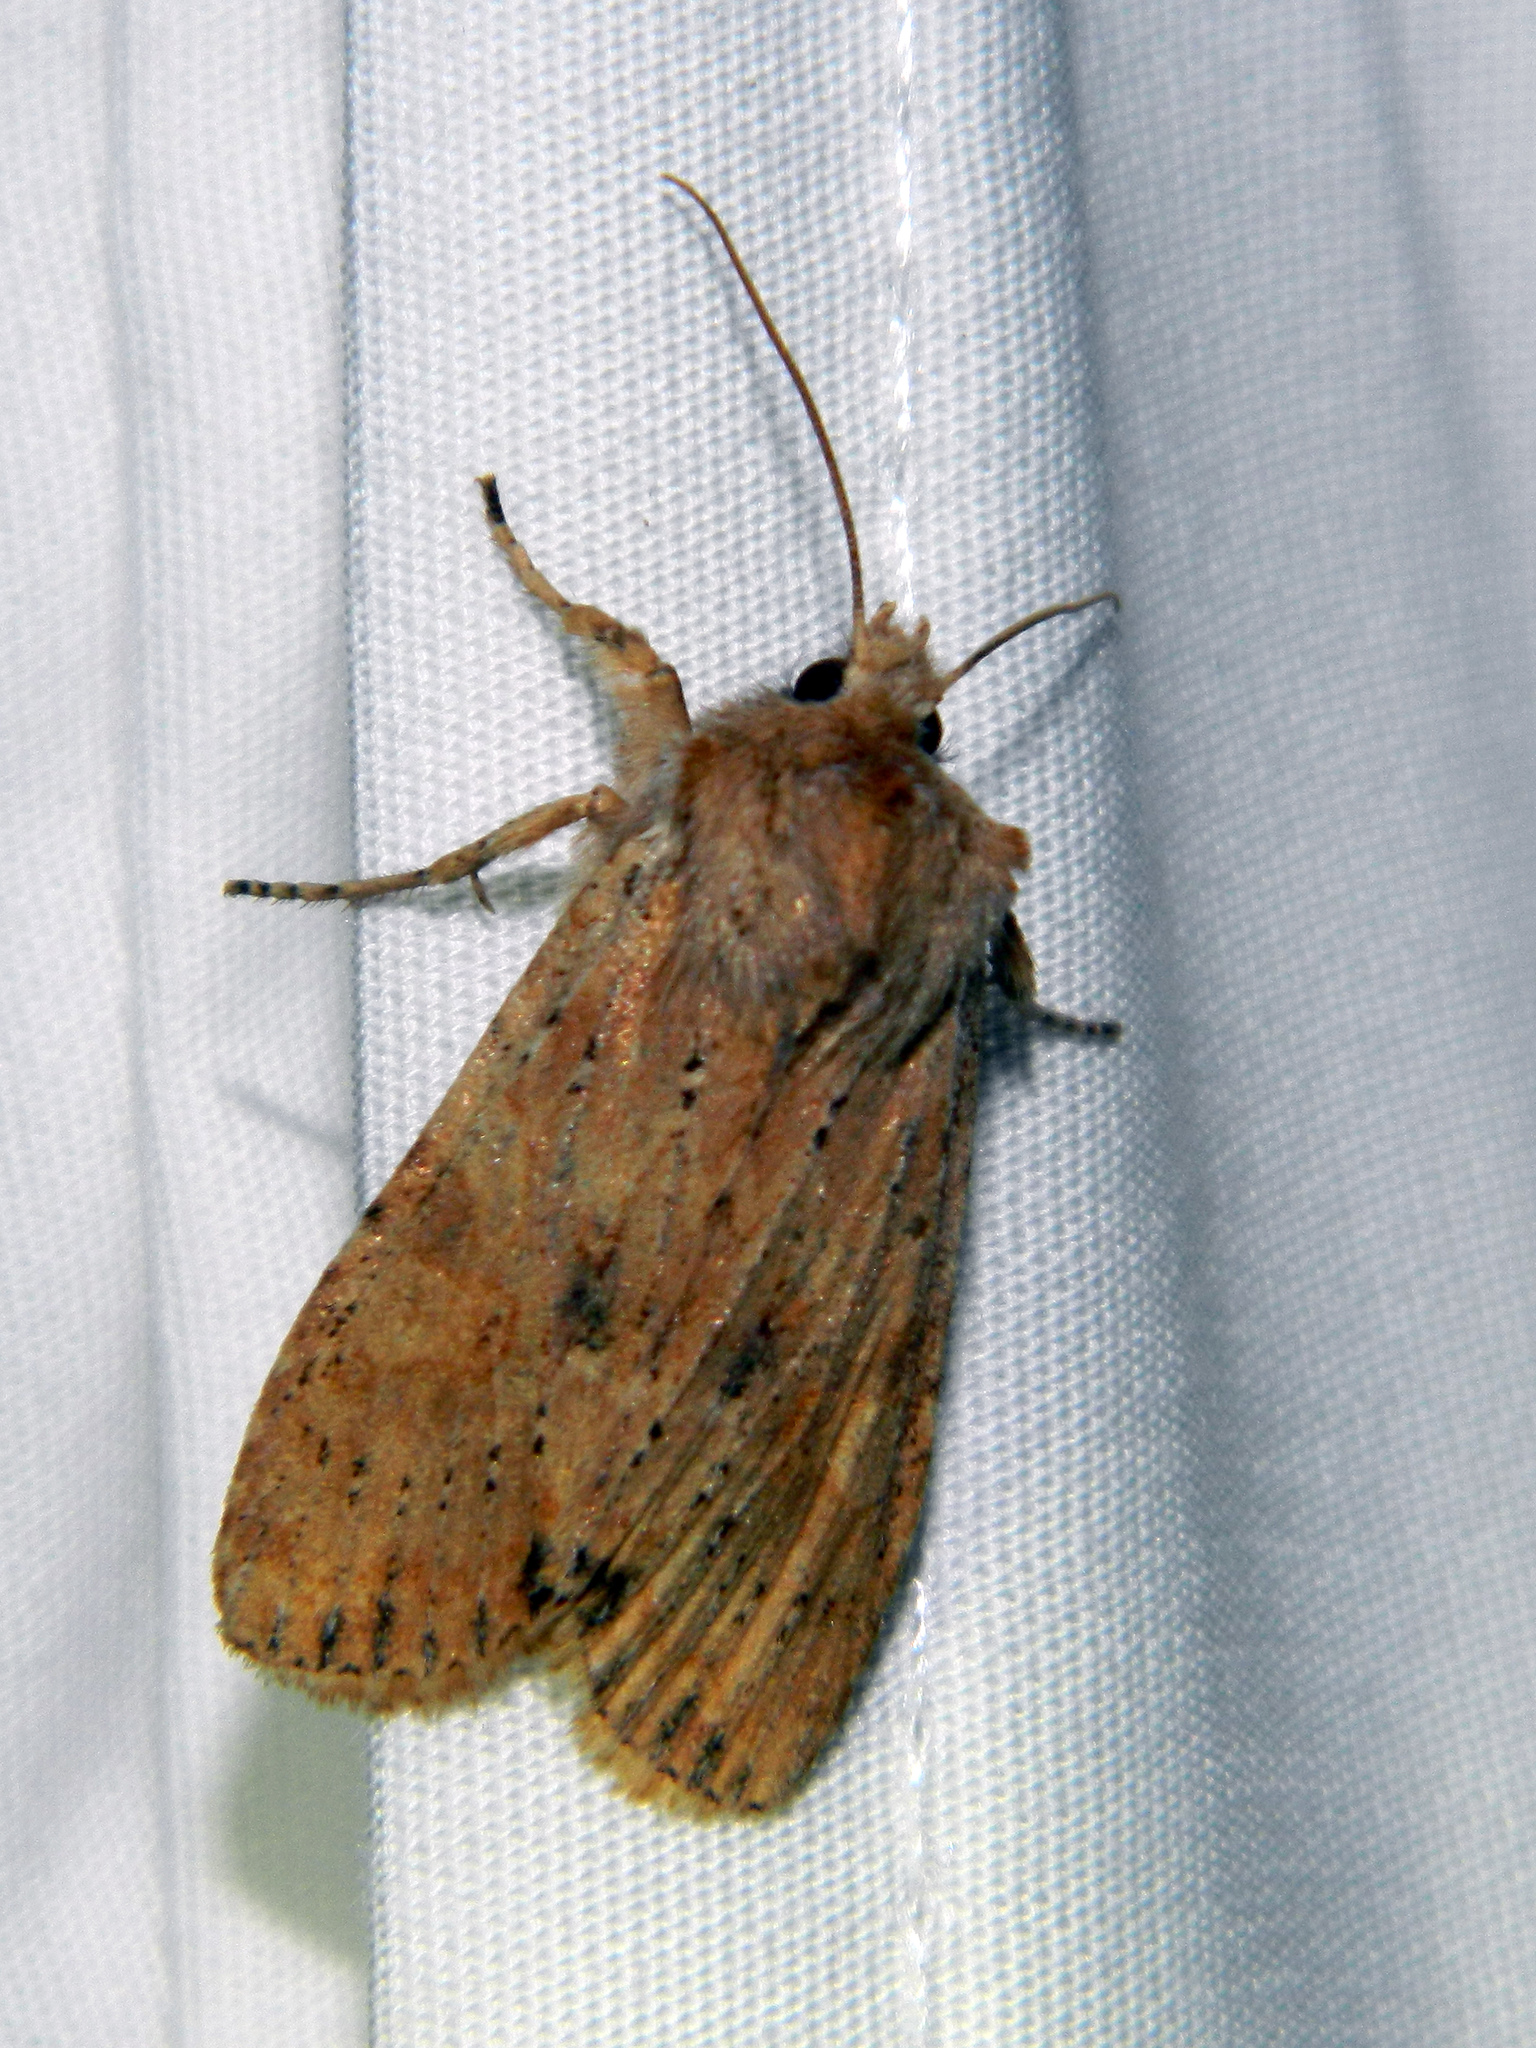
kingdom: Animalia
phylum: Arthropoda
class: Insecta
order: Lepidoptera
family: Noctuidae
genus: Lithophane
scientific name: Lithophane innominata
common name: Nameless pinion moth
